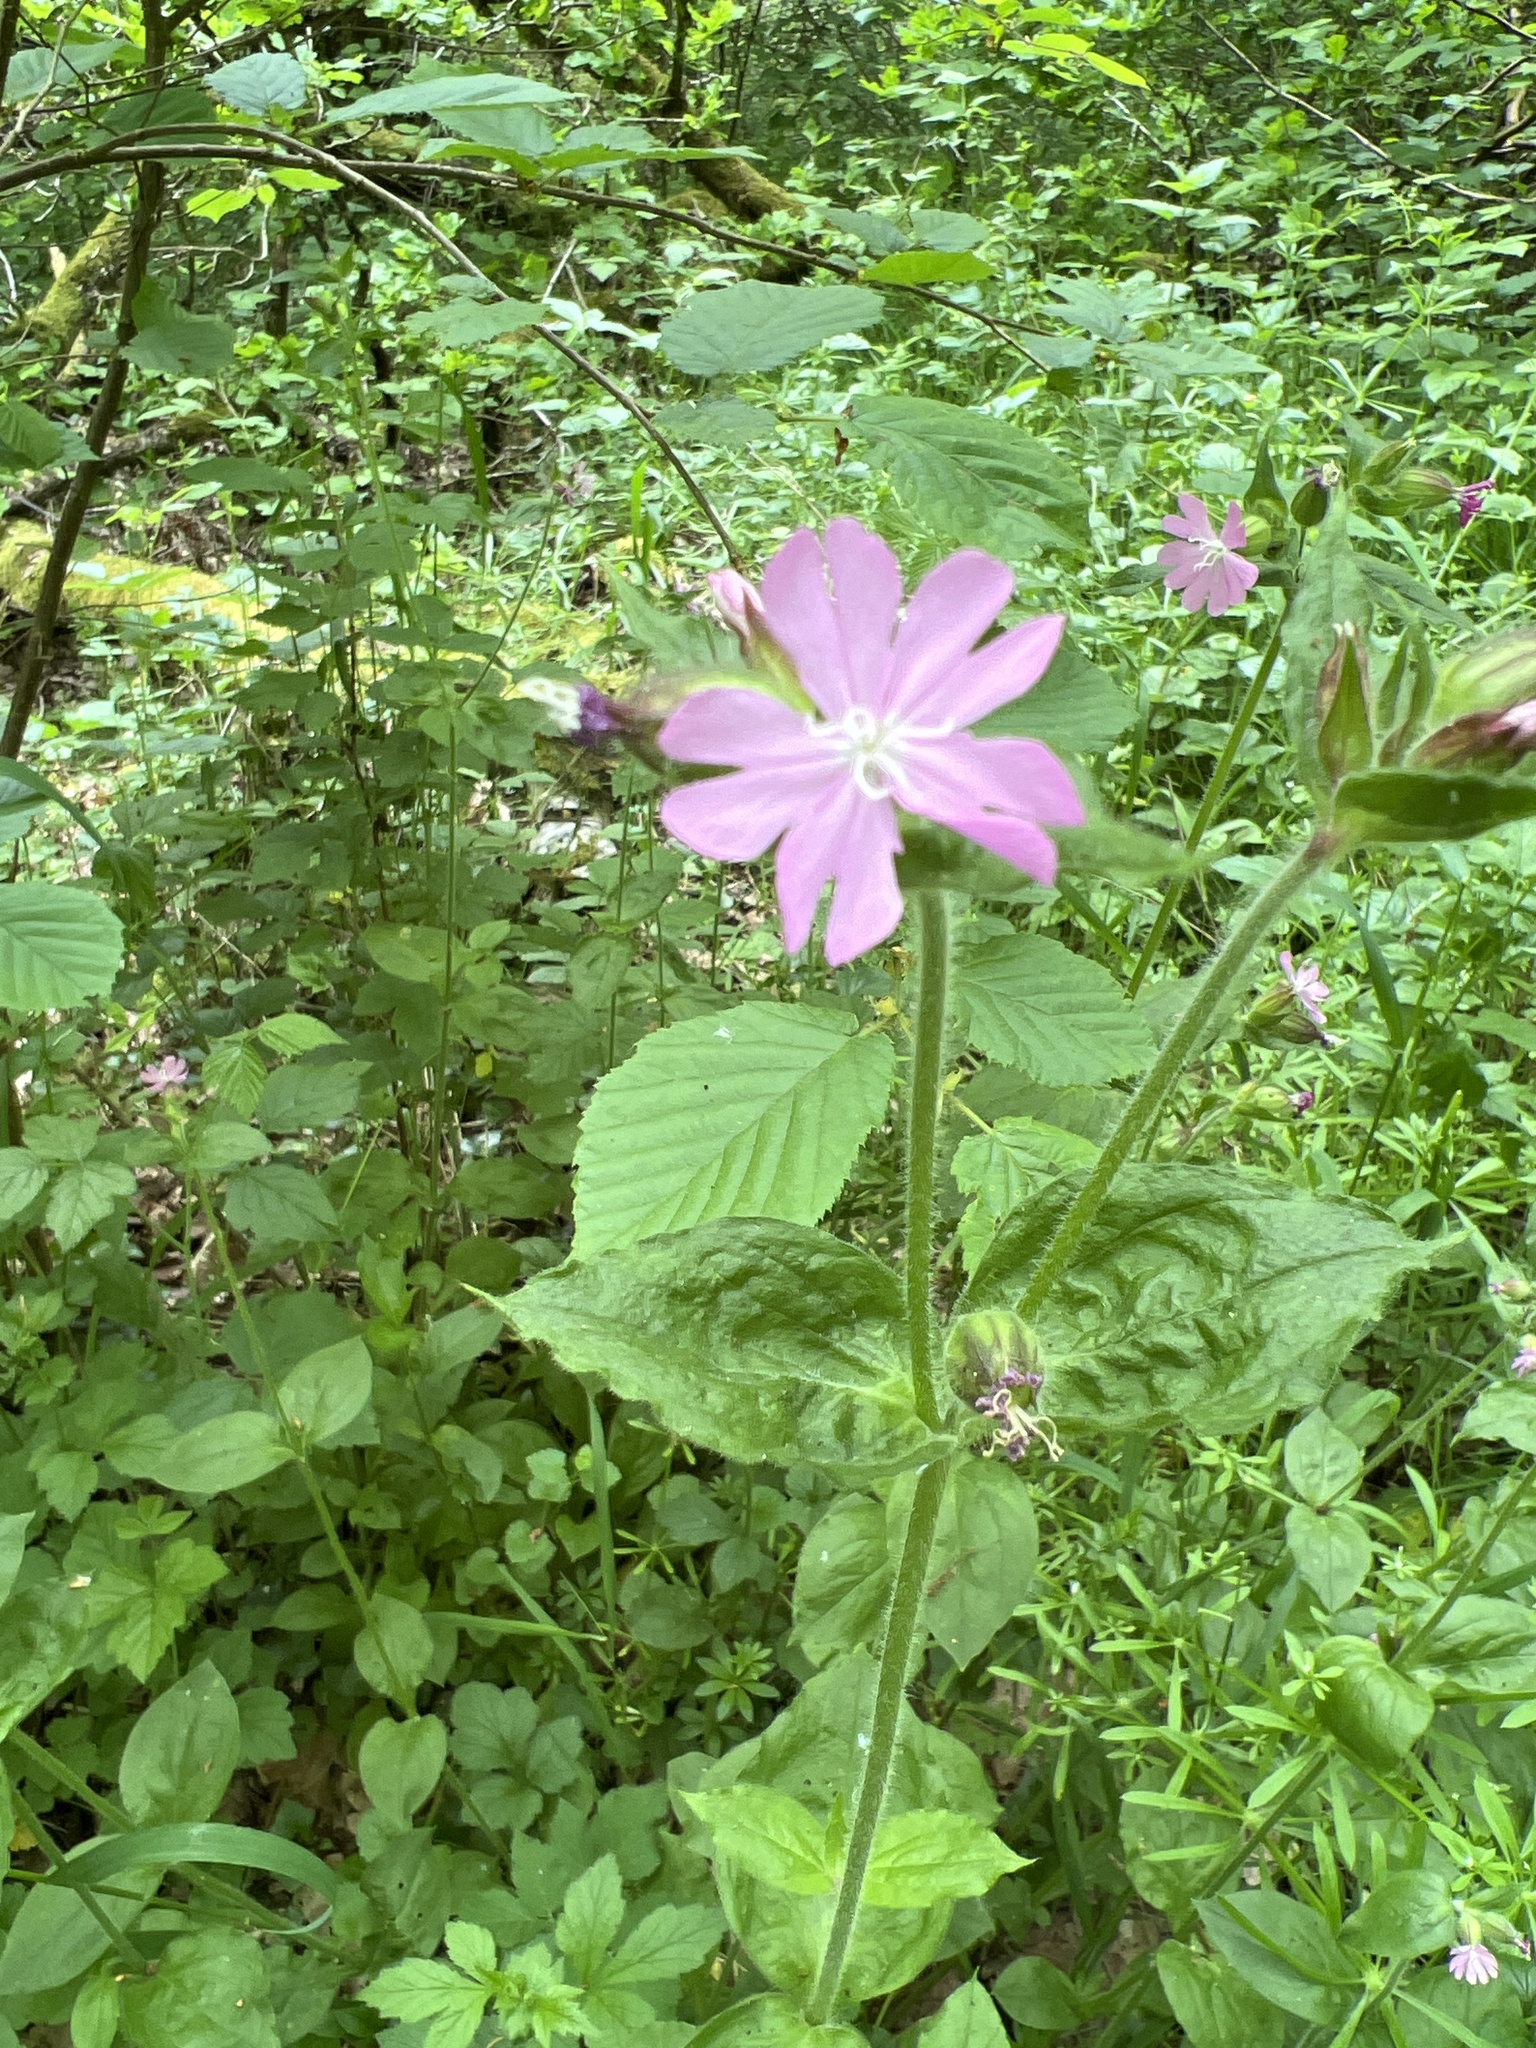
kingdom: Plantae
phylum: Tracheophyta
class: Magnoliopsida
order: Caryophyllales
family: Caryophyllaceae
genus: Silene
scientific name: Silene dioica
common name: Red campion
